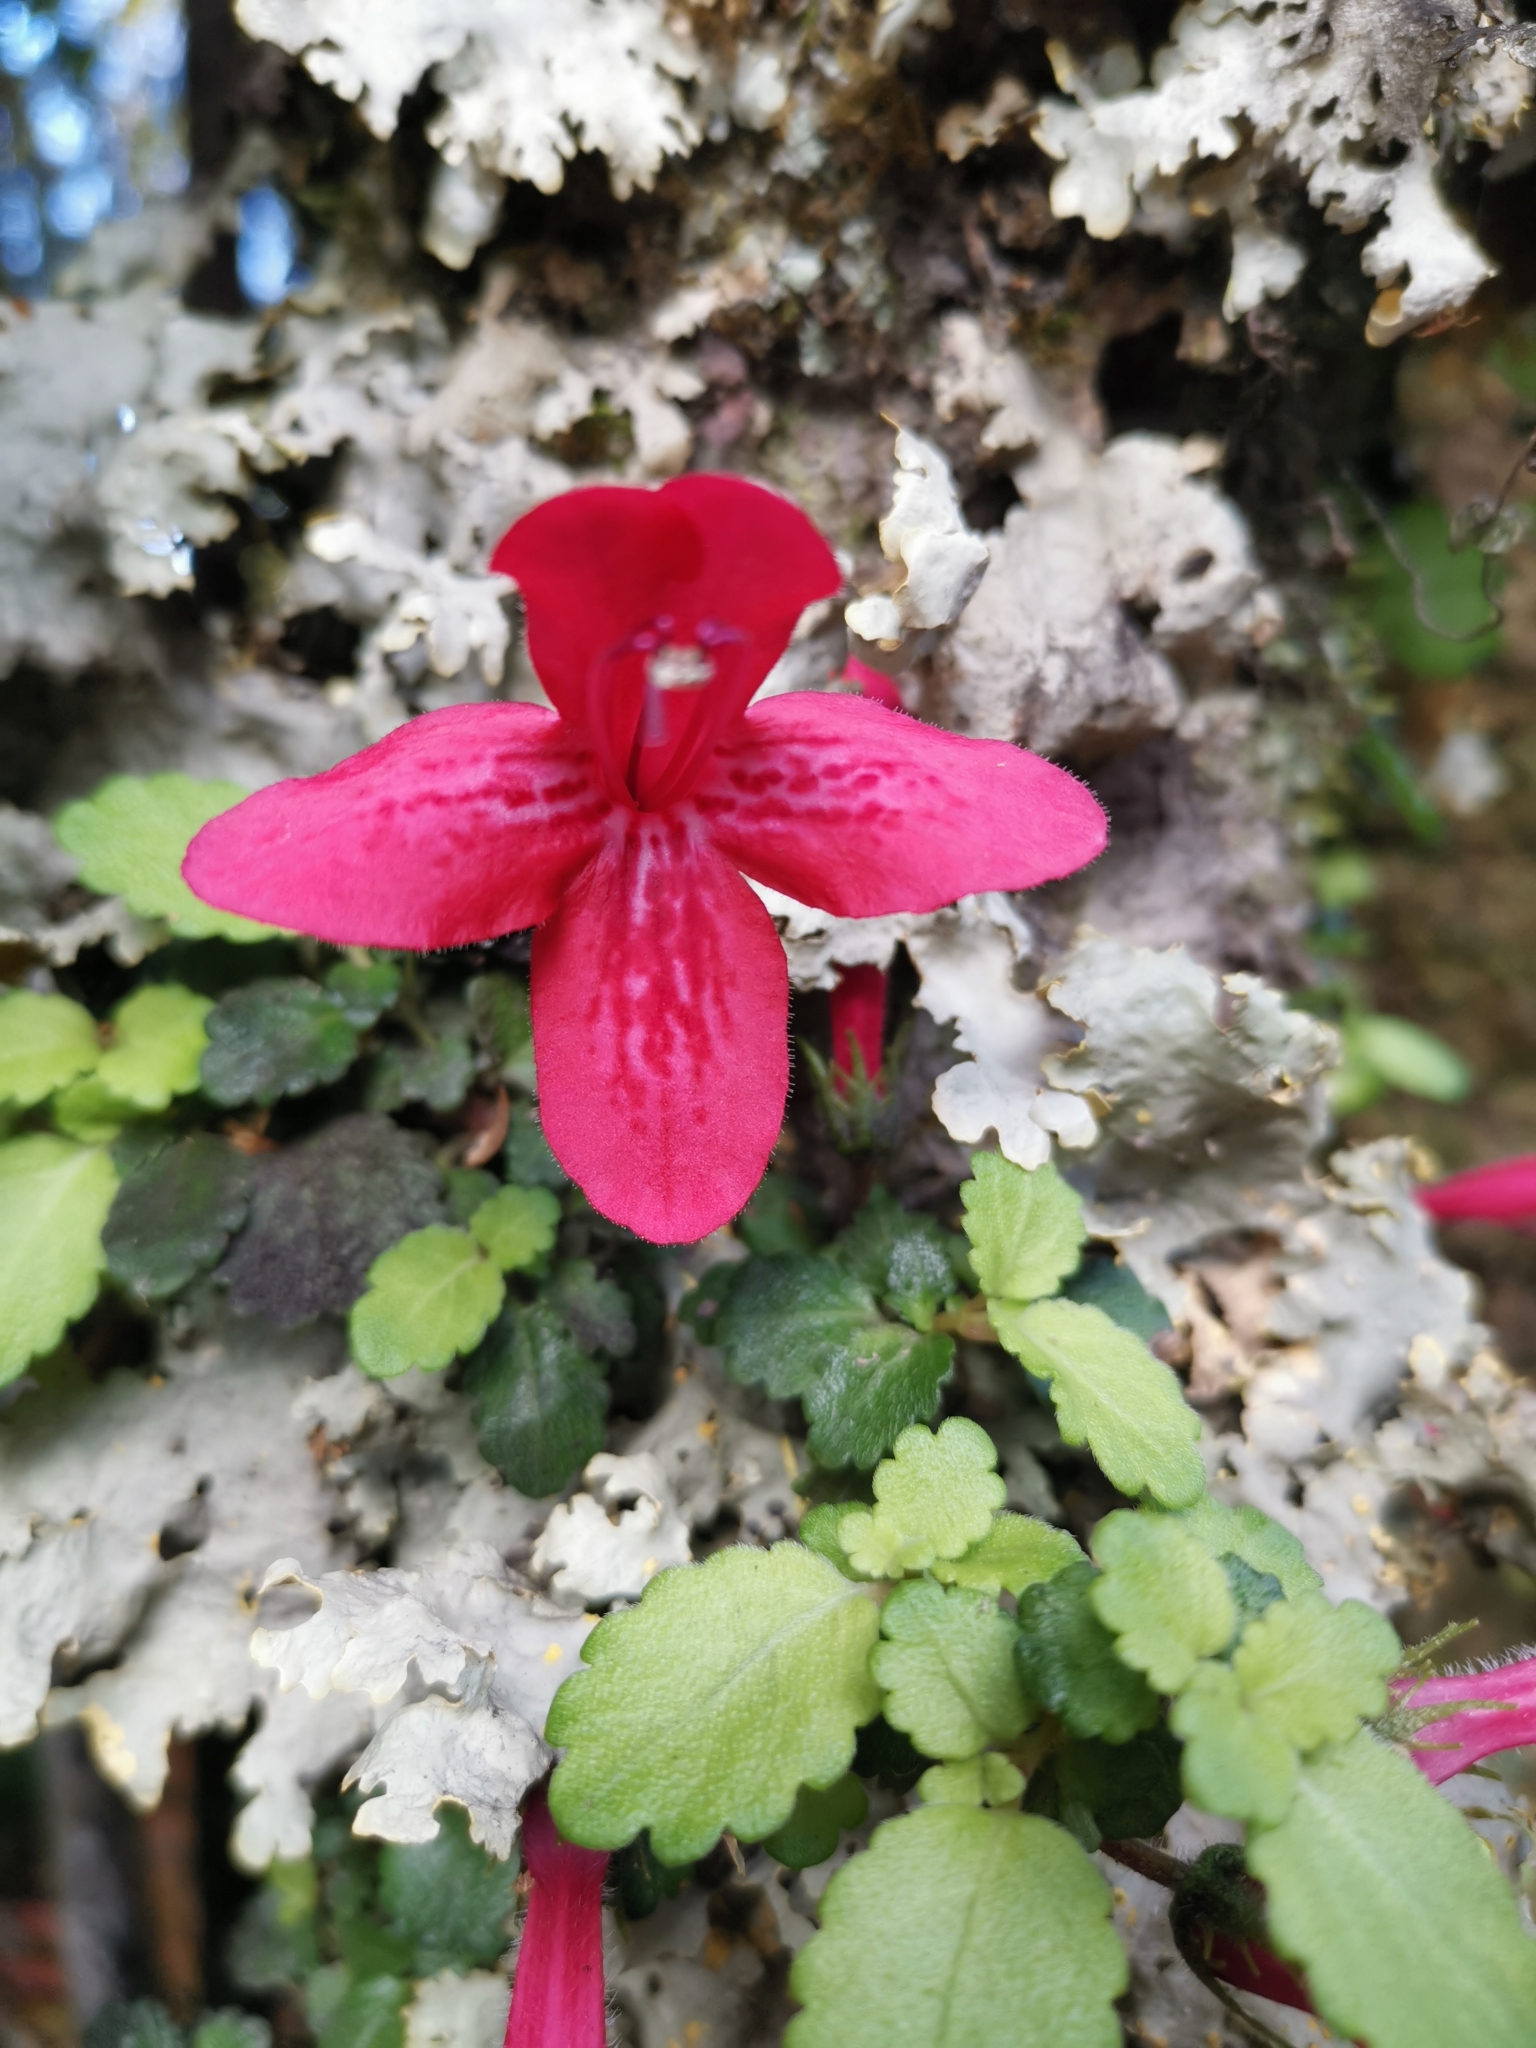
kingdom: Plantae
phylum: Tracheophyta
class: Magnoliopsida
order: Lamiales
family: Gesneriaceae
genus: Asteranthera
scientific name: Asteranthera ovata
